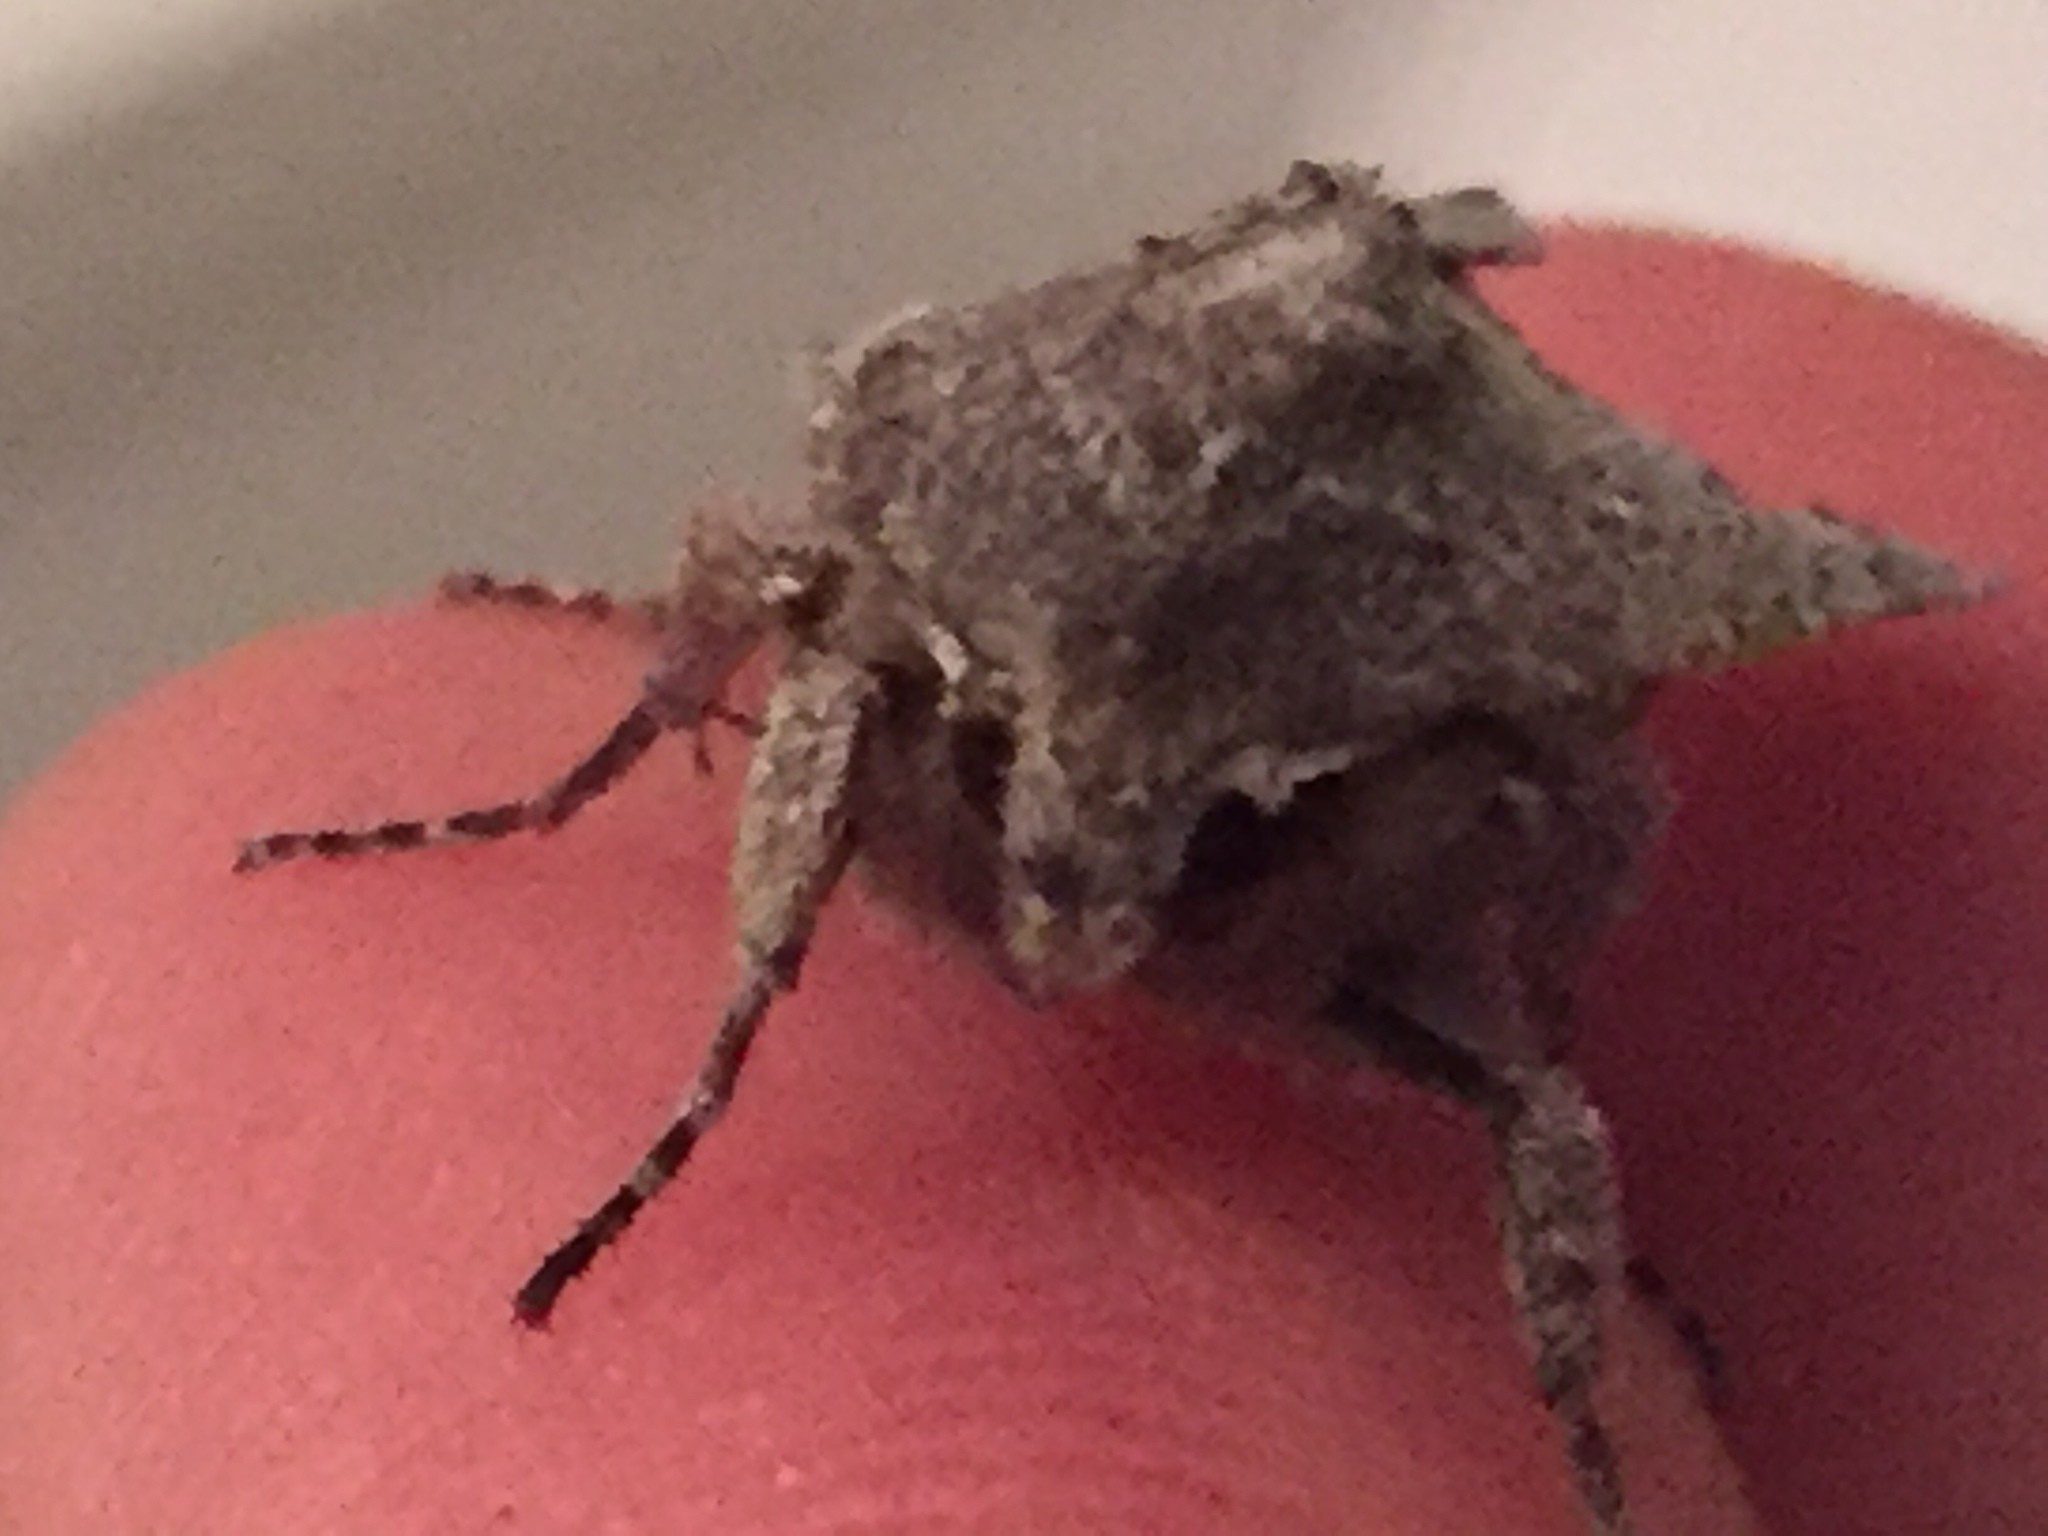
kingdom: Animalia
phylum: Arthropoda
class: Insecta
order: Lepidoptera
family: Noctuidae
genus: Ichneutica
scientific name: Ichneutica
